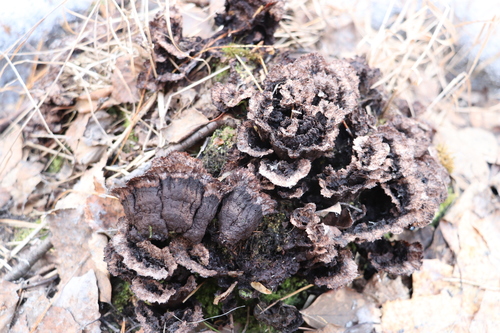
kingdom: Fungi
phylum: Basidiomycota
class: Agaricomycetes
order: Thelephorales
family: Thelephoraceae
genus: Thelephora
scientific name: Thelephora terrestris
